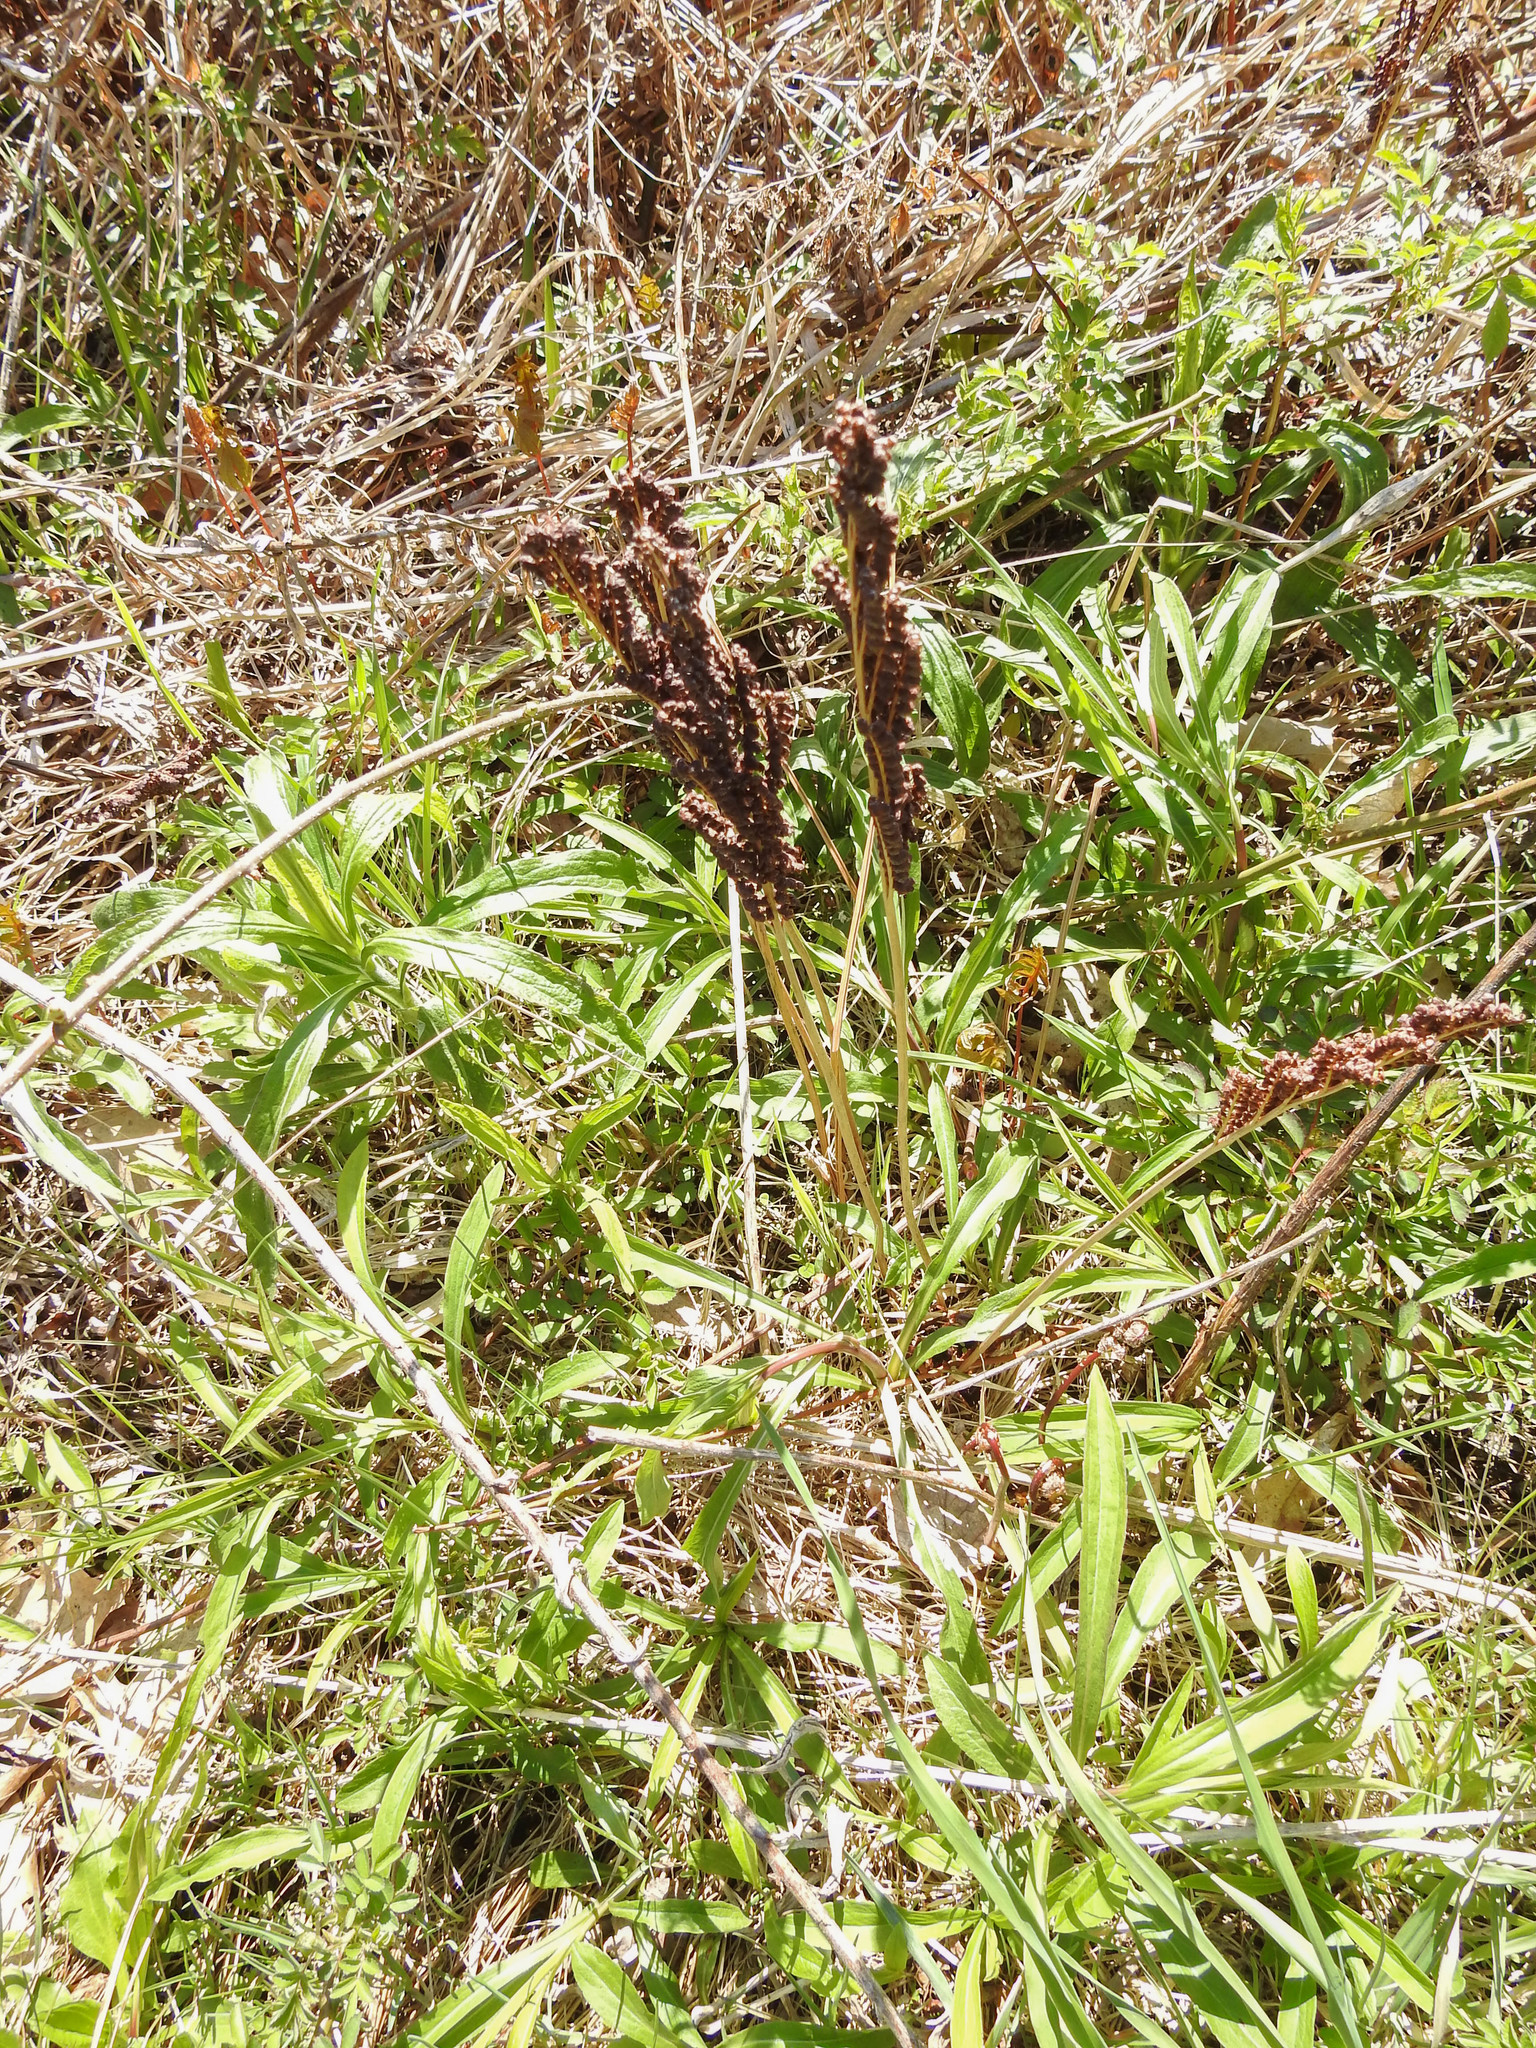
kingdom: Plantae
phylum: Tracheophyta
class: Polypodiopsida
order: Polypodiales
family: Onocleaceae
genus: Onoclea
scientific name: Onoclea sensibilis
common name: Sensitive fern
